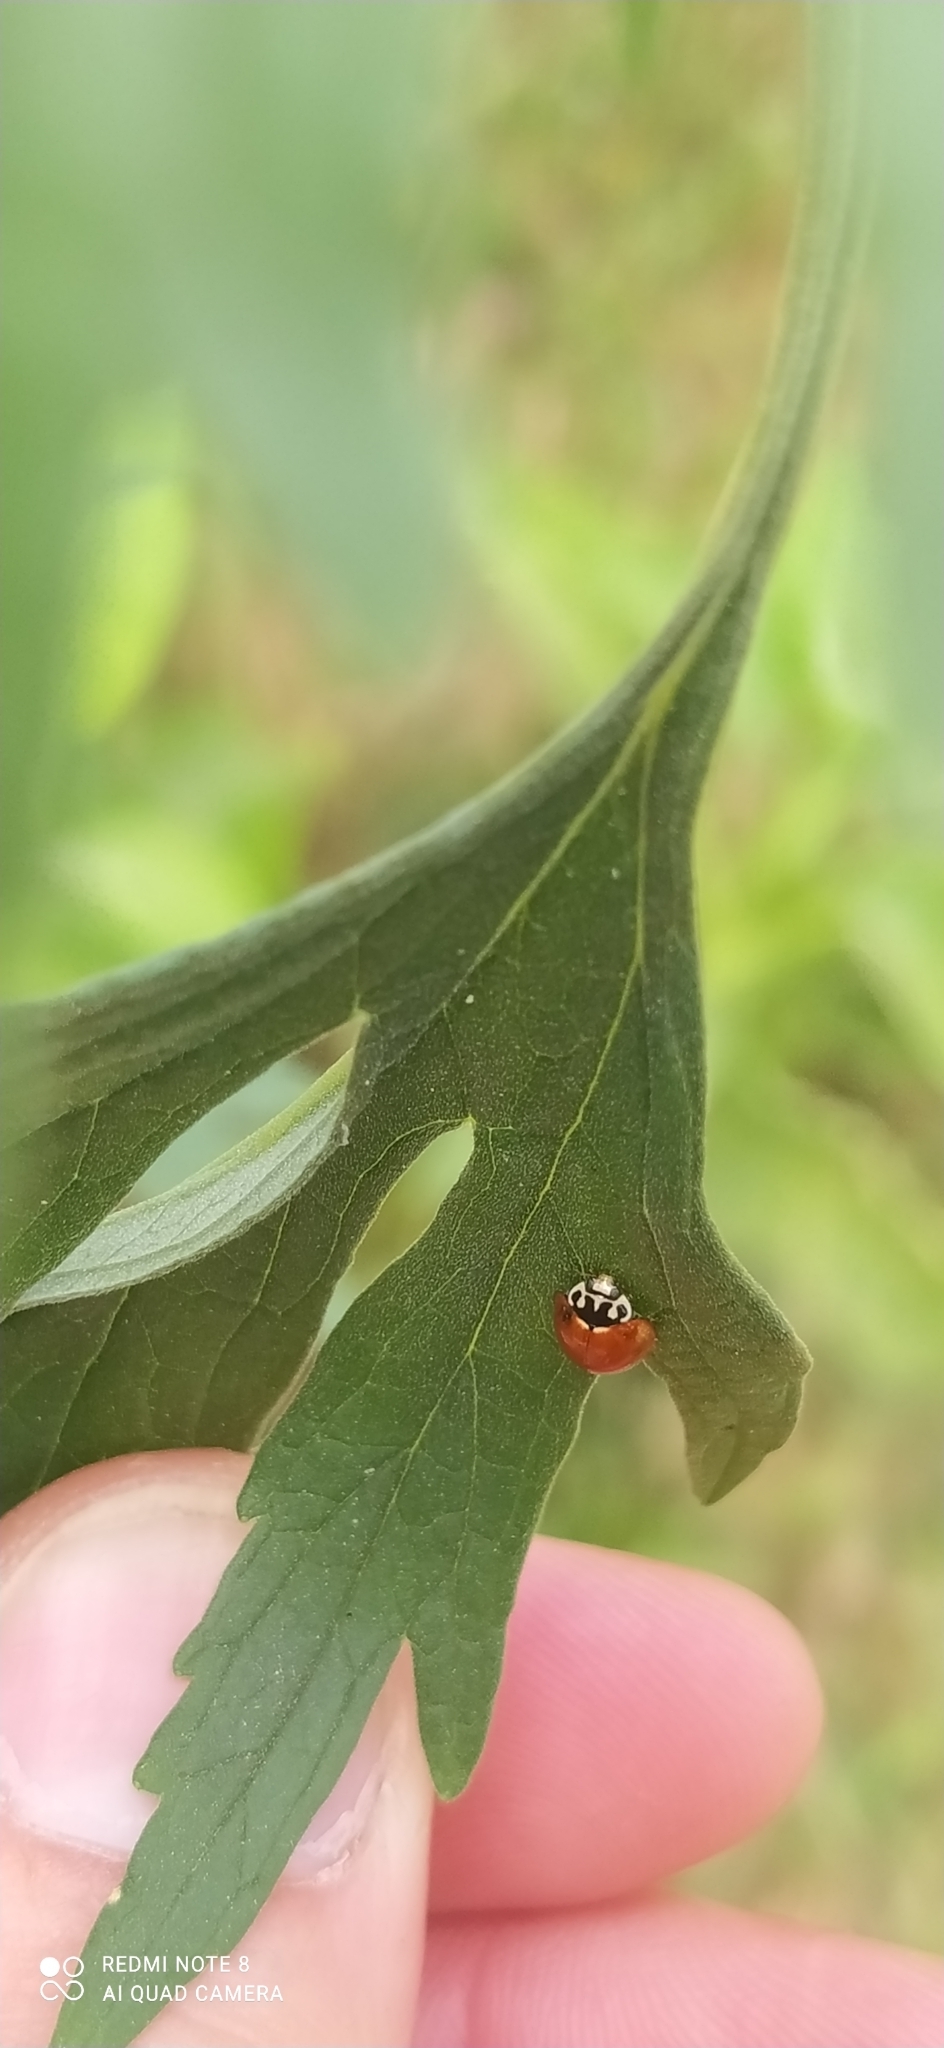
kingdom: Animalia
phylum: Arthropoda
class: Insecta
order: Coleoptera
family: Coccinellidae
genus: Cycloneda
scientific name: Cycloneda sanguinea
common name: Ladybird beetle
